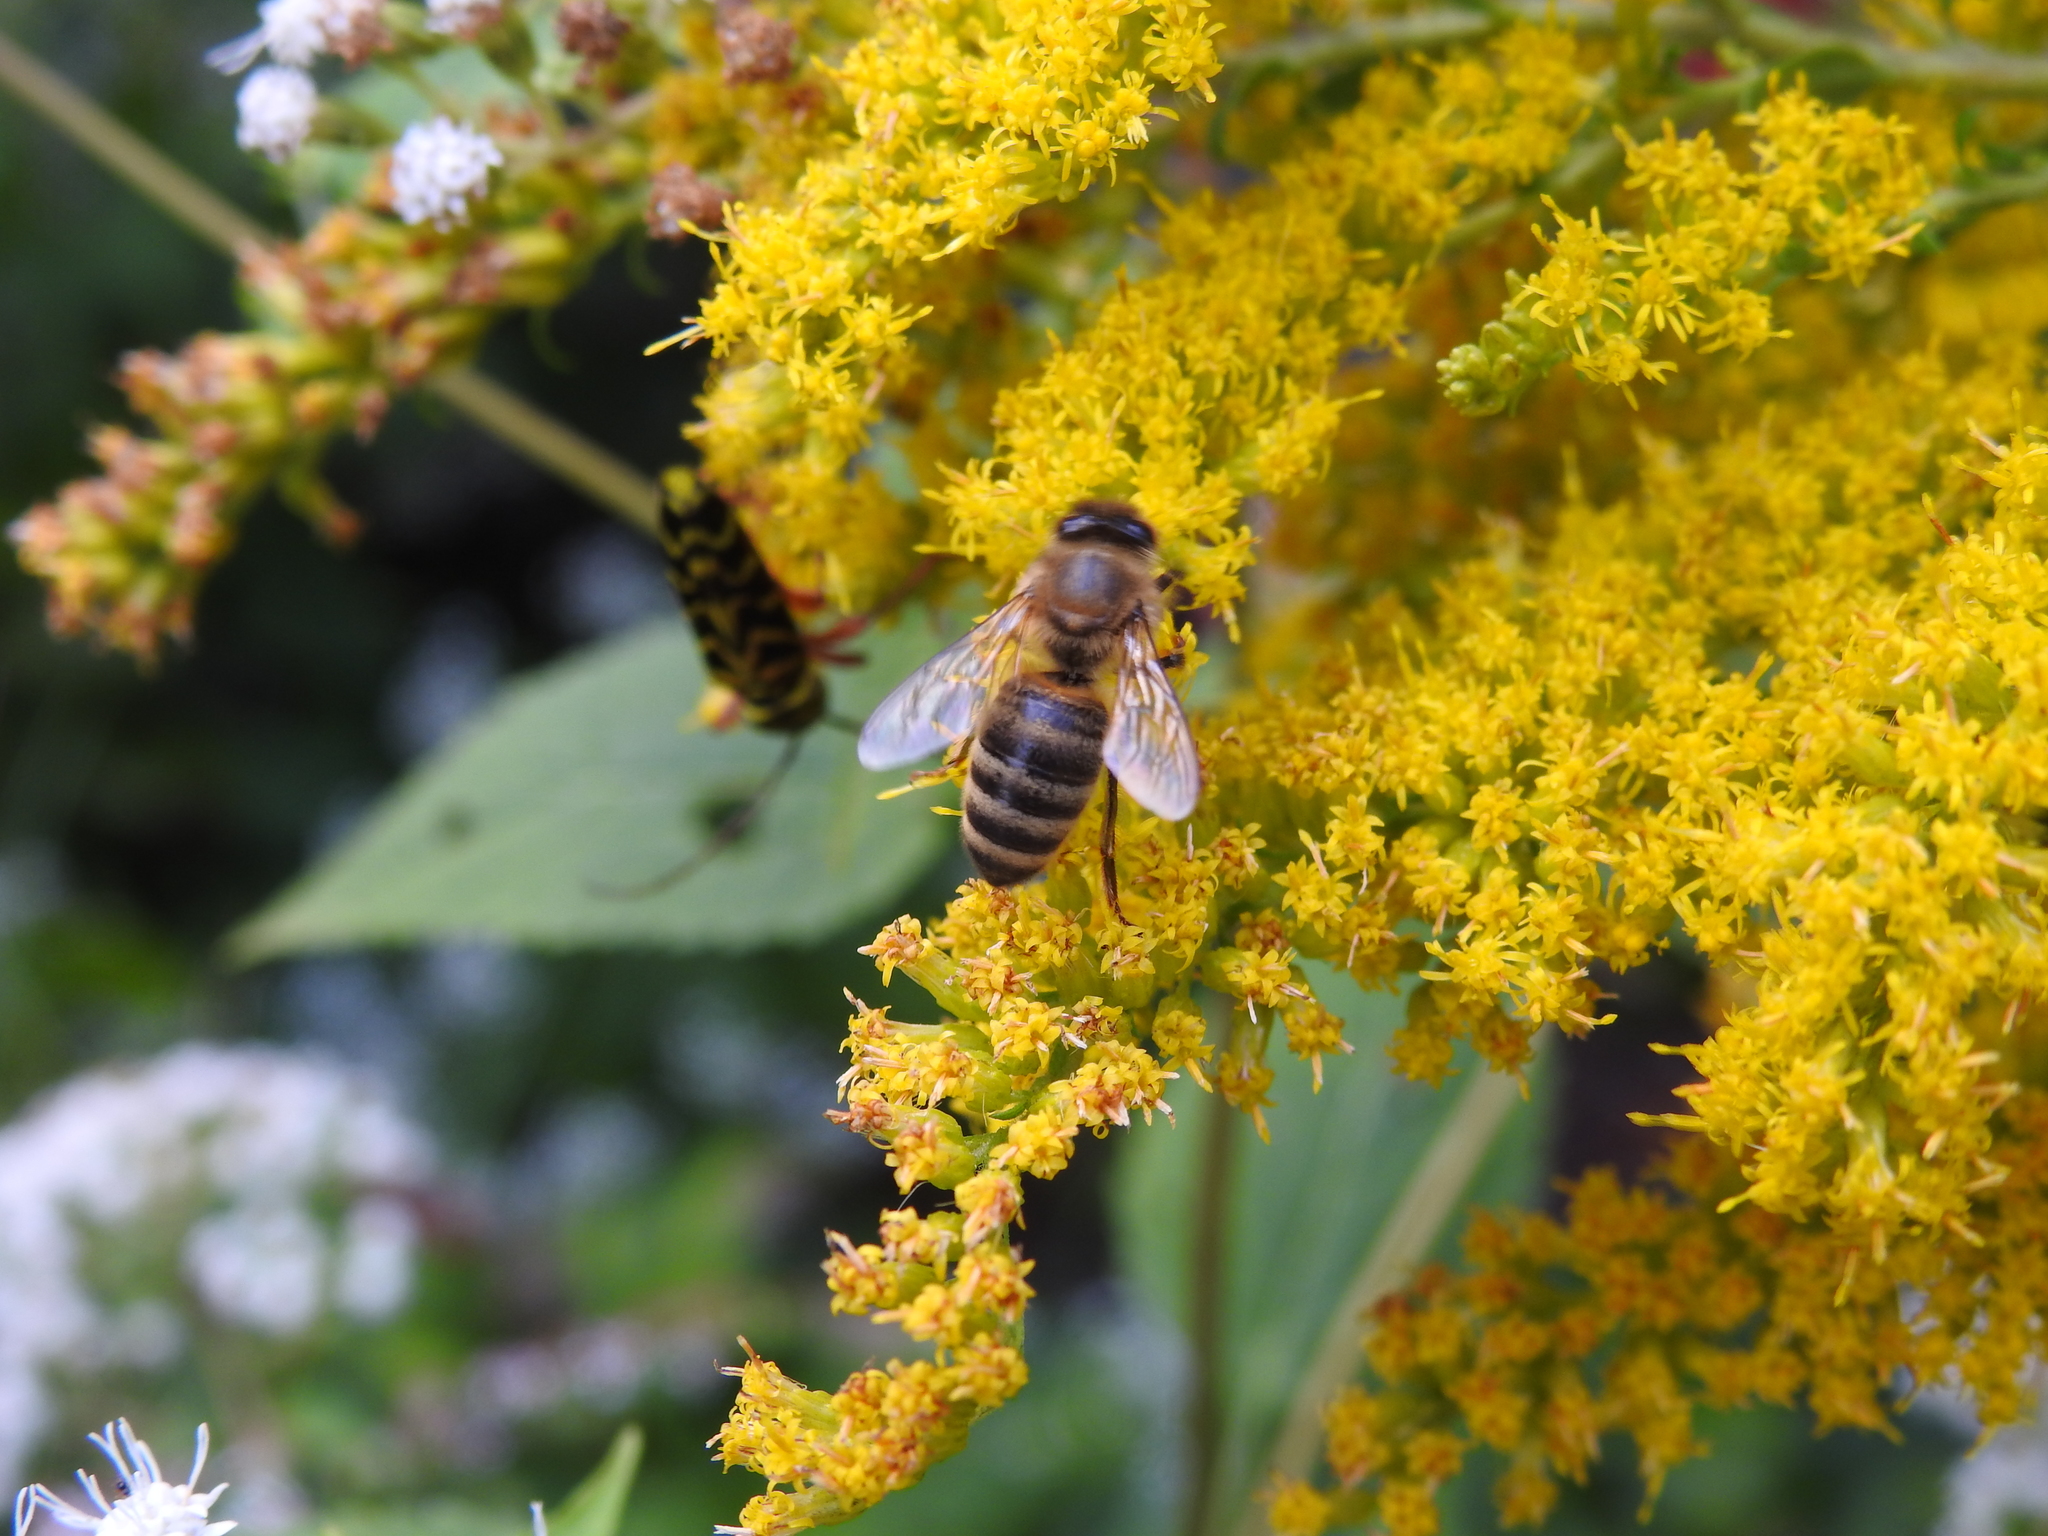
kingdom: Animalia
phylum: Arthropoda
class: Insecta
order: Hymenoptera
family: Apidae
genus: Apis
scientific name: Apis mellifera
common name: Honey bee
